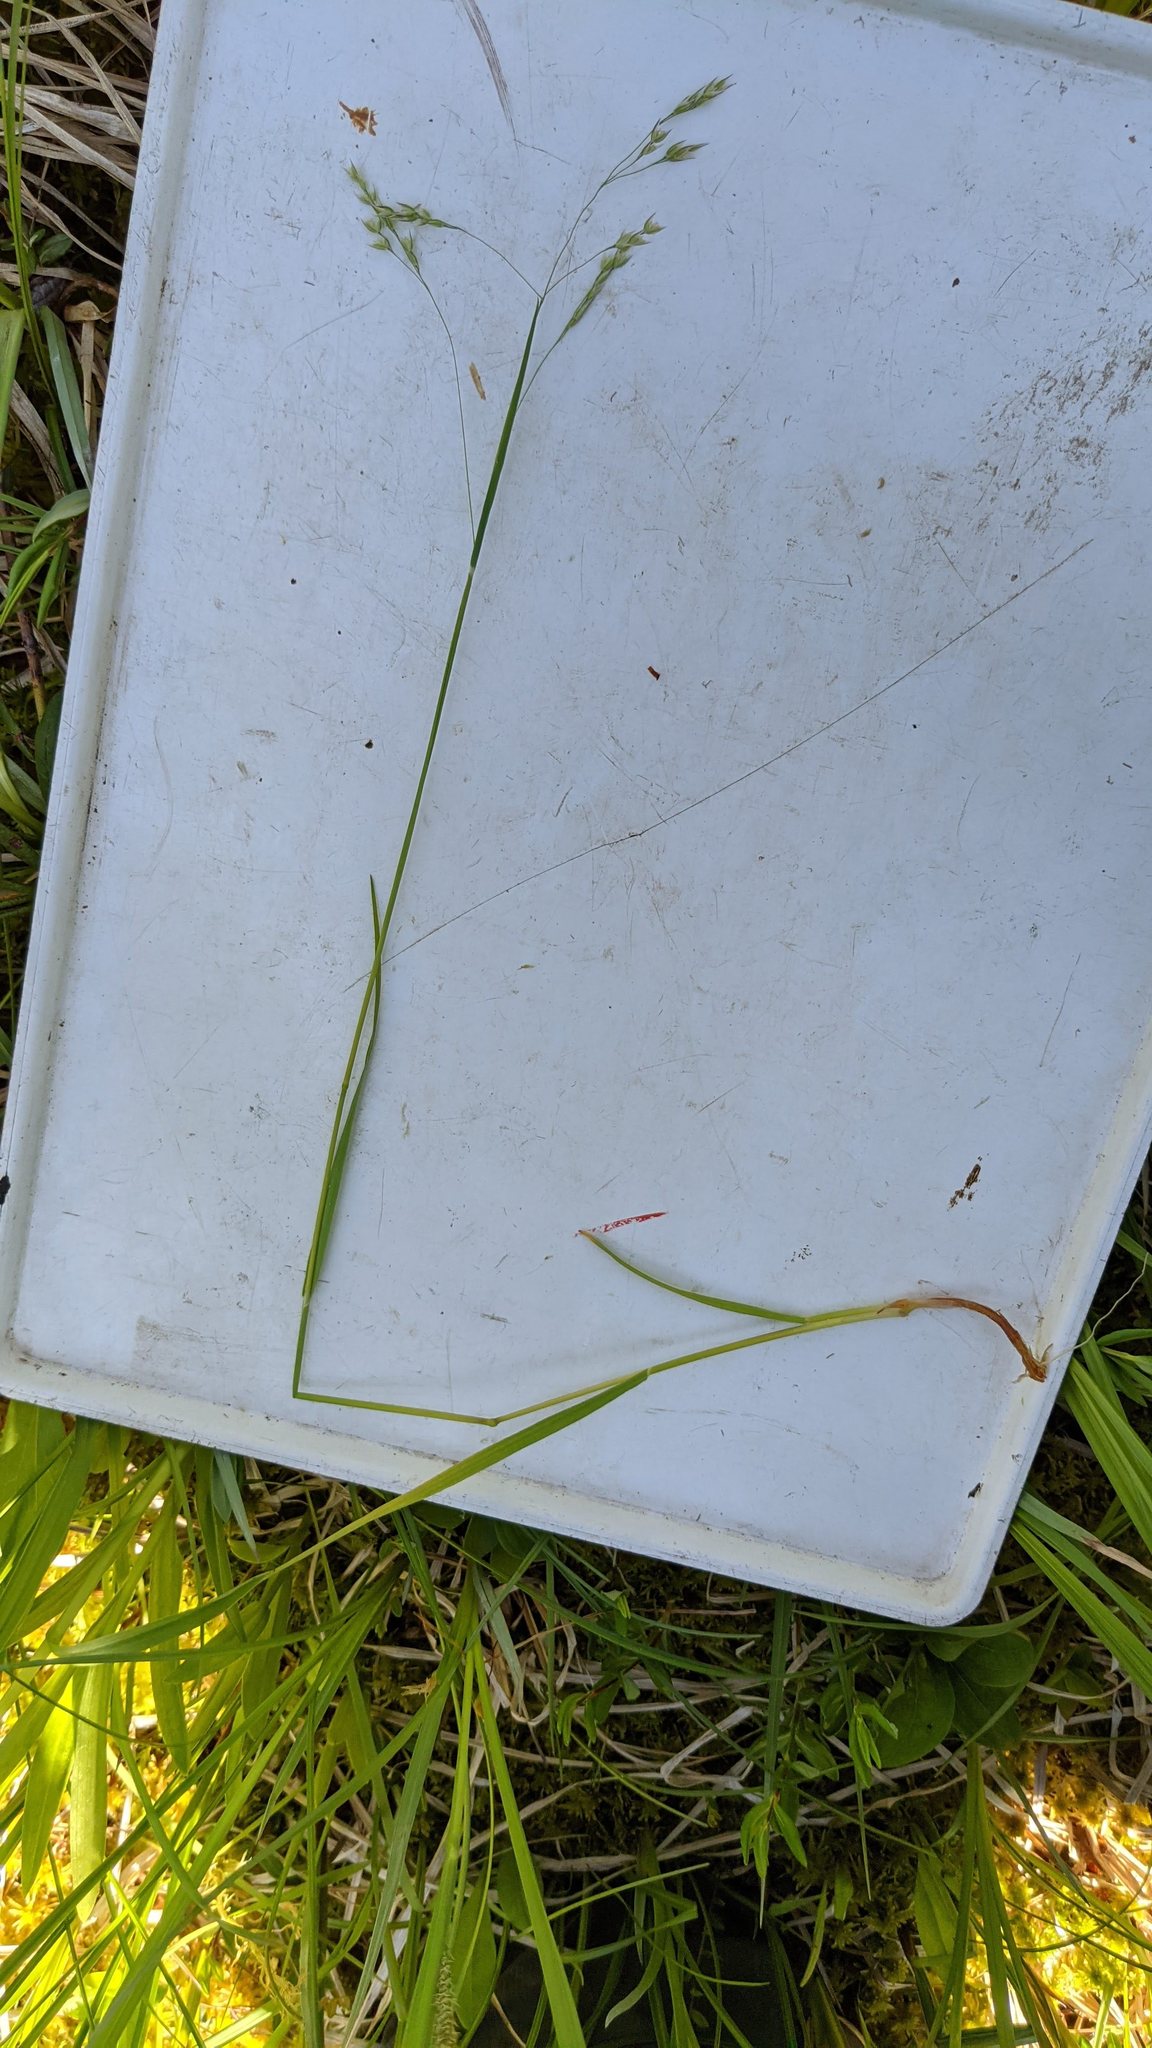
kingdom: Plantae
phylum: Tracheophyta
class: Liliopsida
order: Poales
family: Poaceae
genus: Vahlodea
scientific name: Vahlodea atropurpurea
